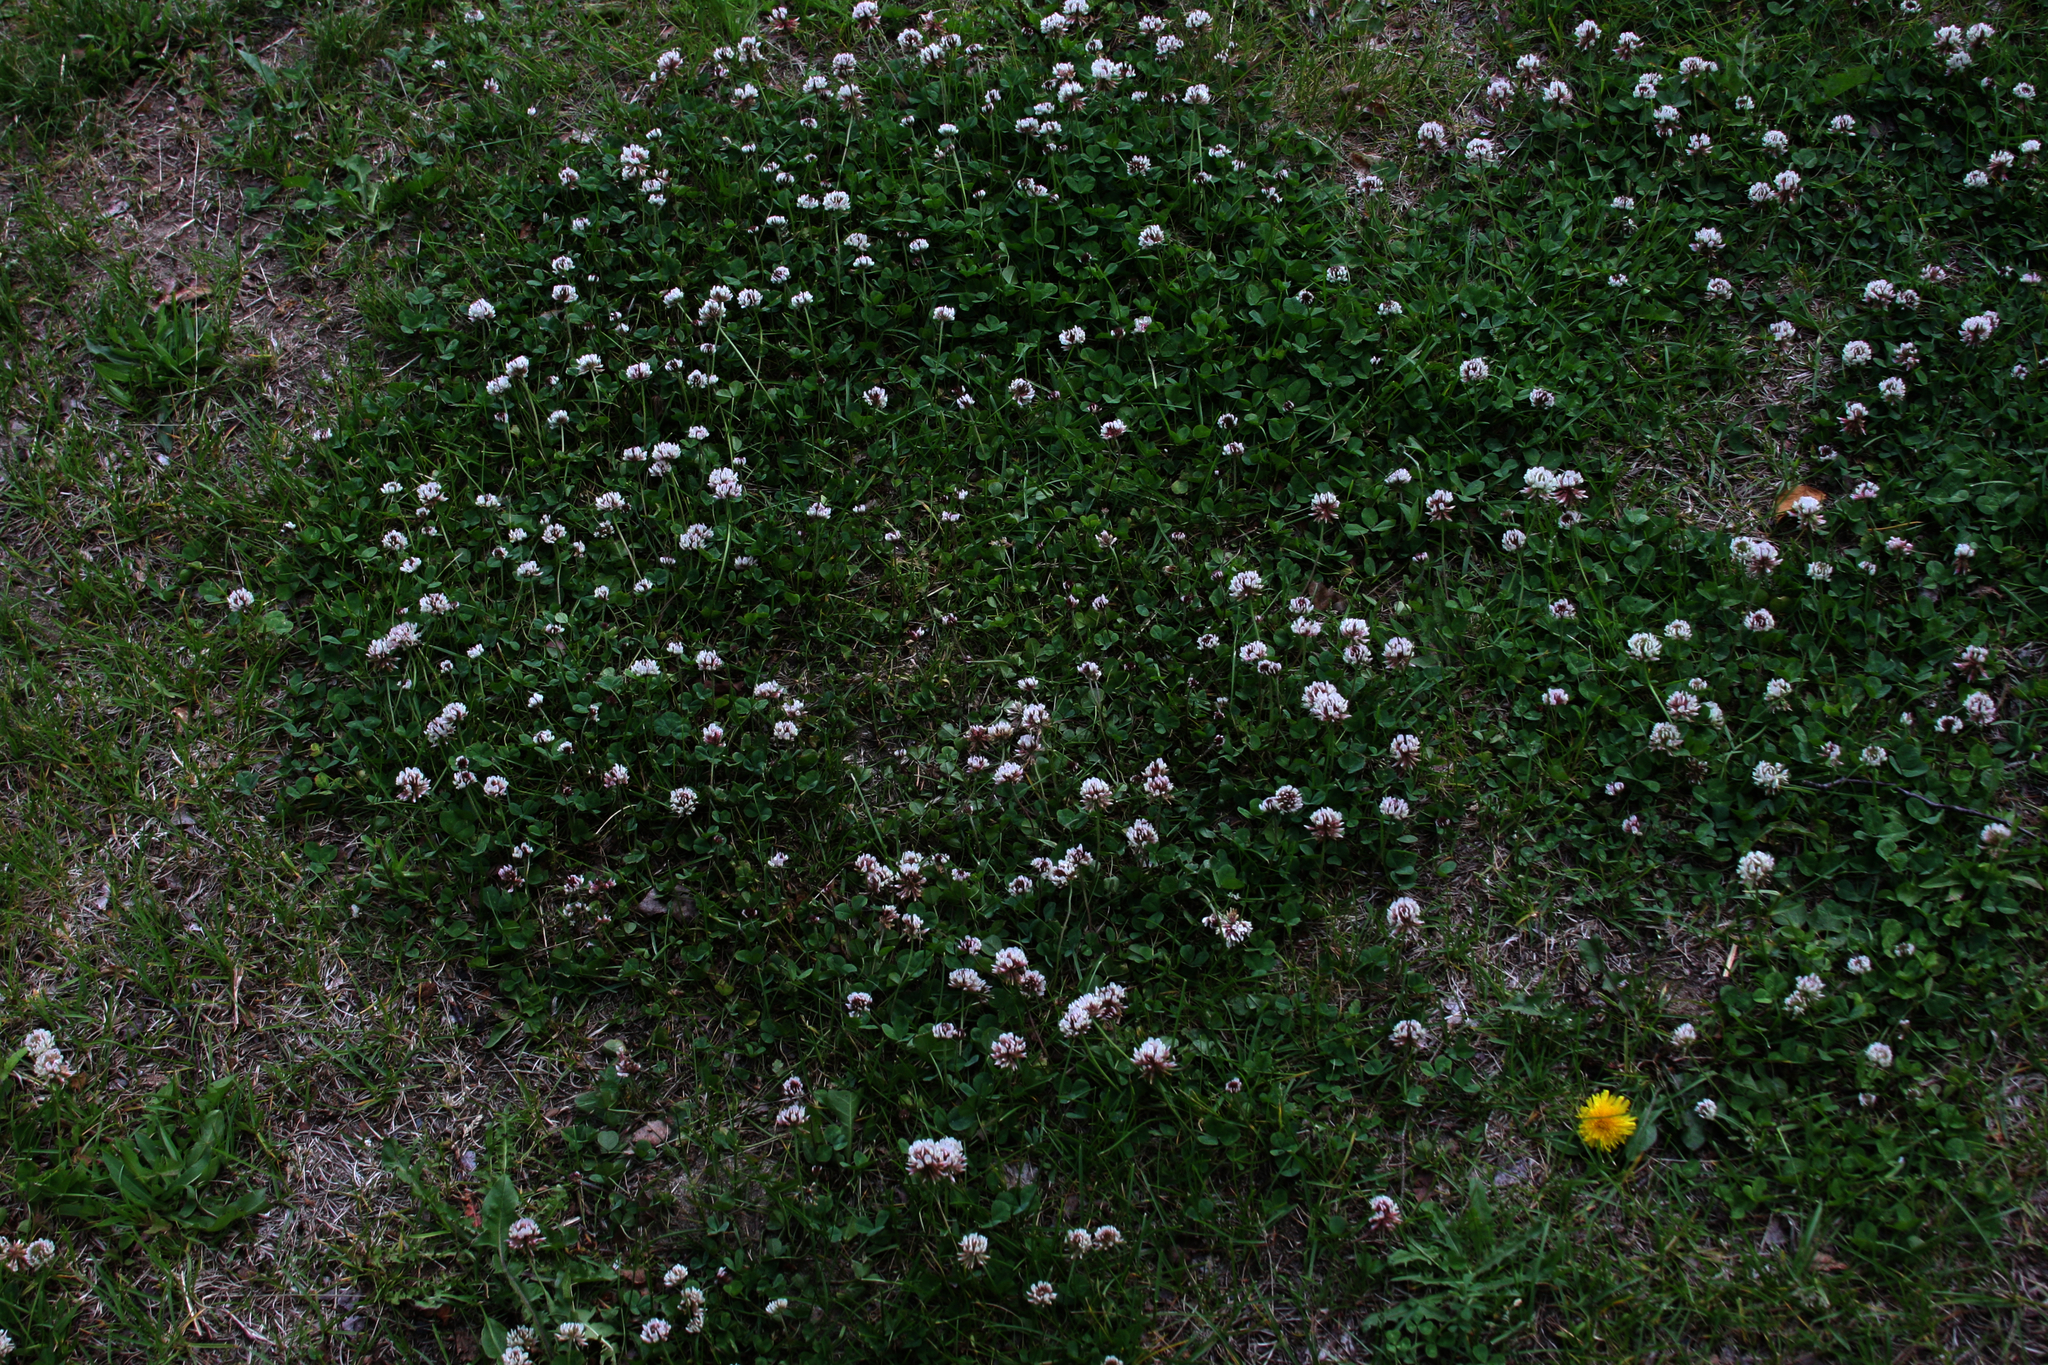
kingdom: Plantae
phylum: Tracheophyta
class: Magnoliopsida
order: Fabales
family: Fabaceae
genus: Trifolium
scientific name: Trifolium repens
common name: White clover
